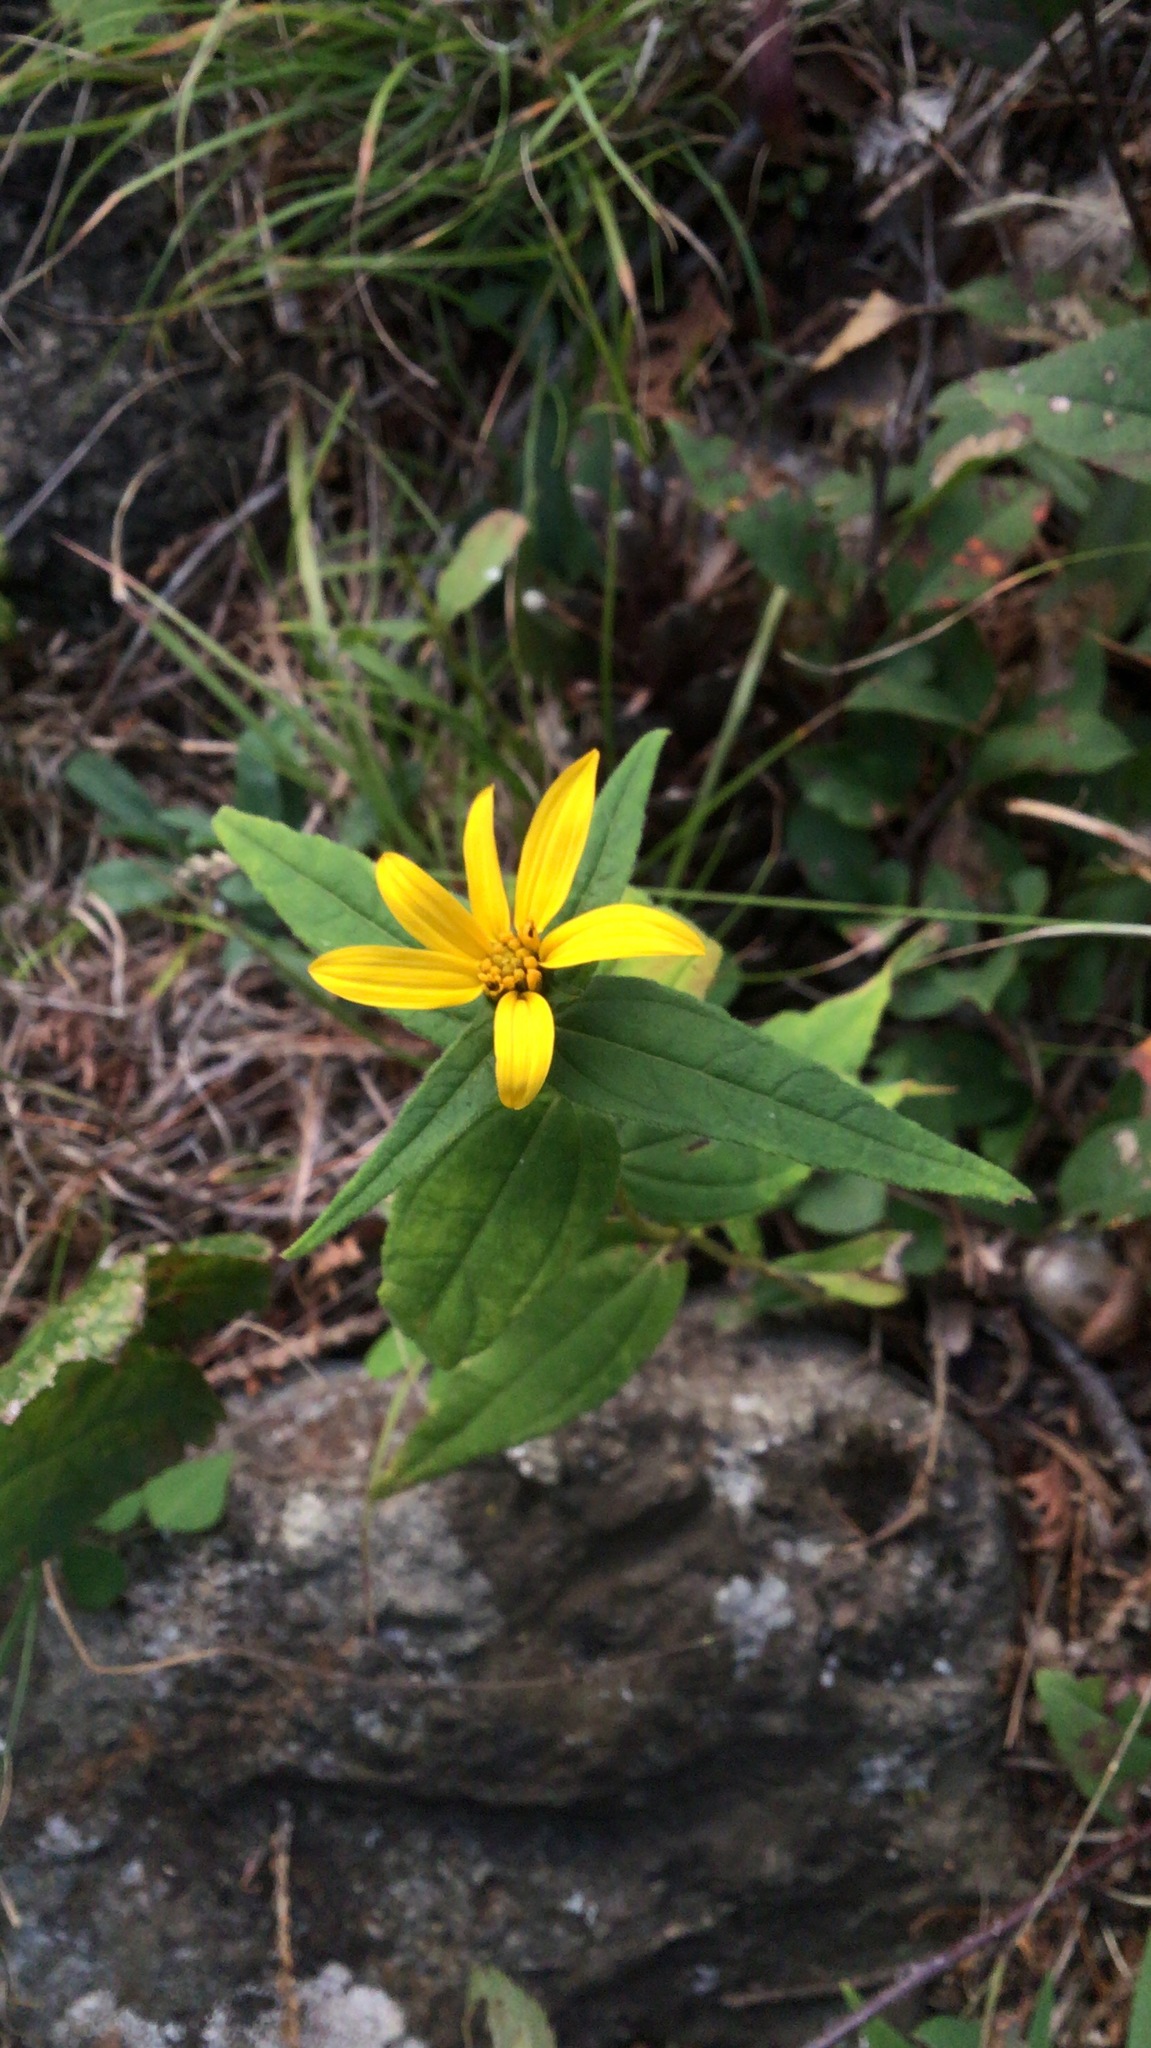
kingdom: Plantae
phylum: Tracheophyta
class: Magnoliopsida
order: Asterales
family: Asteraceae
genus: Helianthus
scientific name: Helianthus divaricatus
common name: Divergent sunflower
